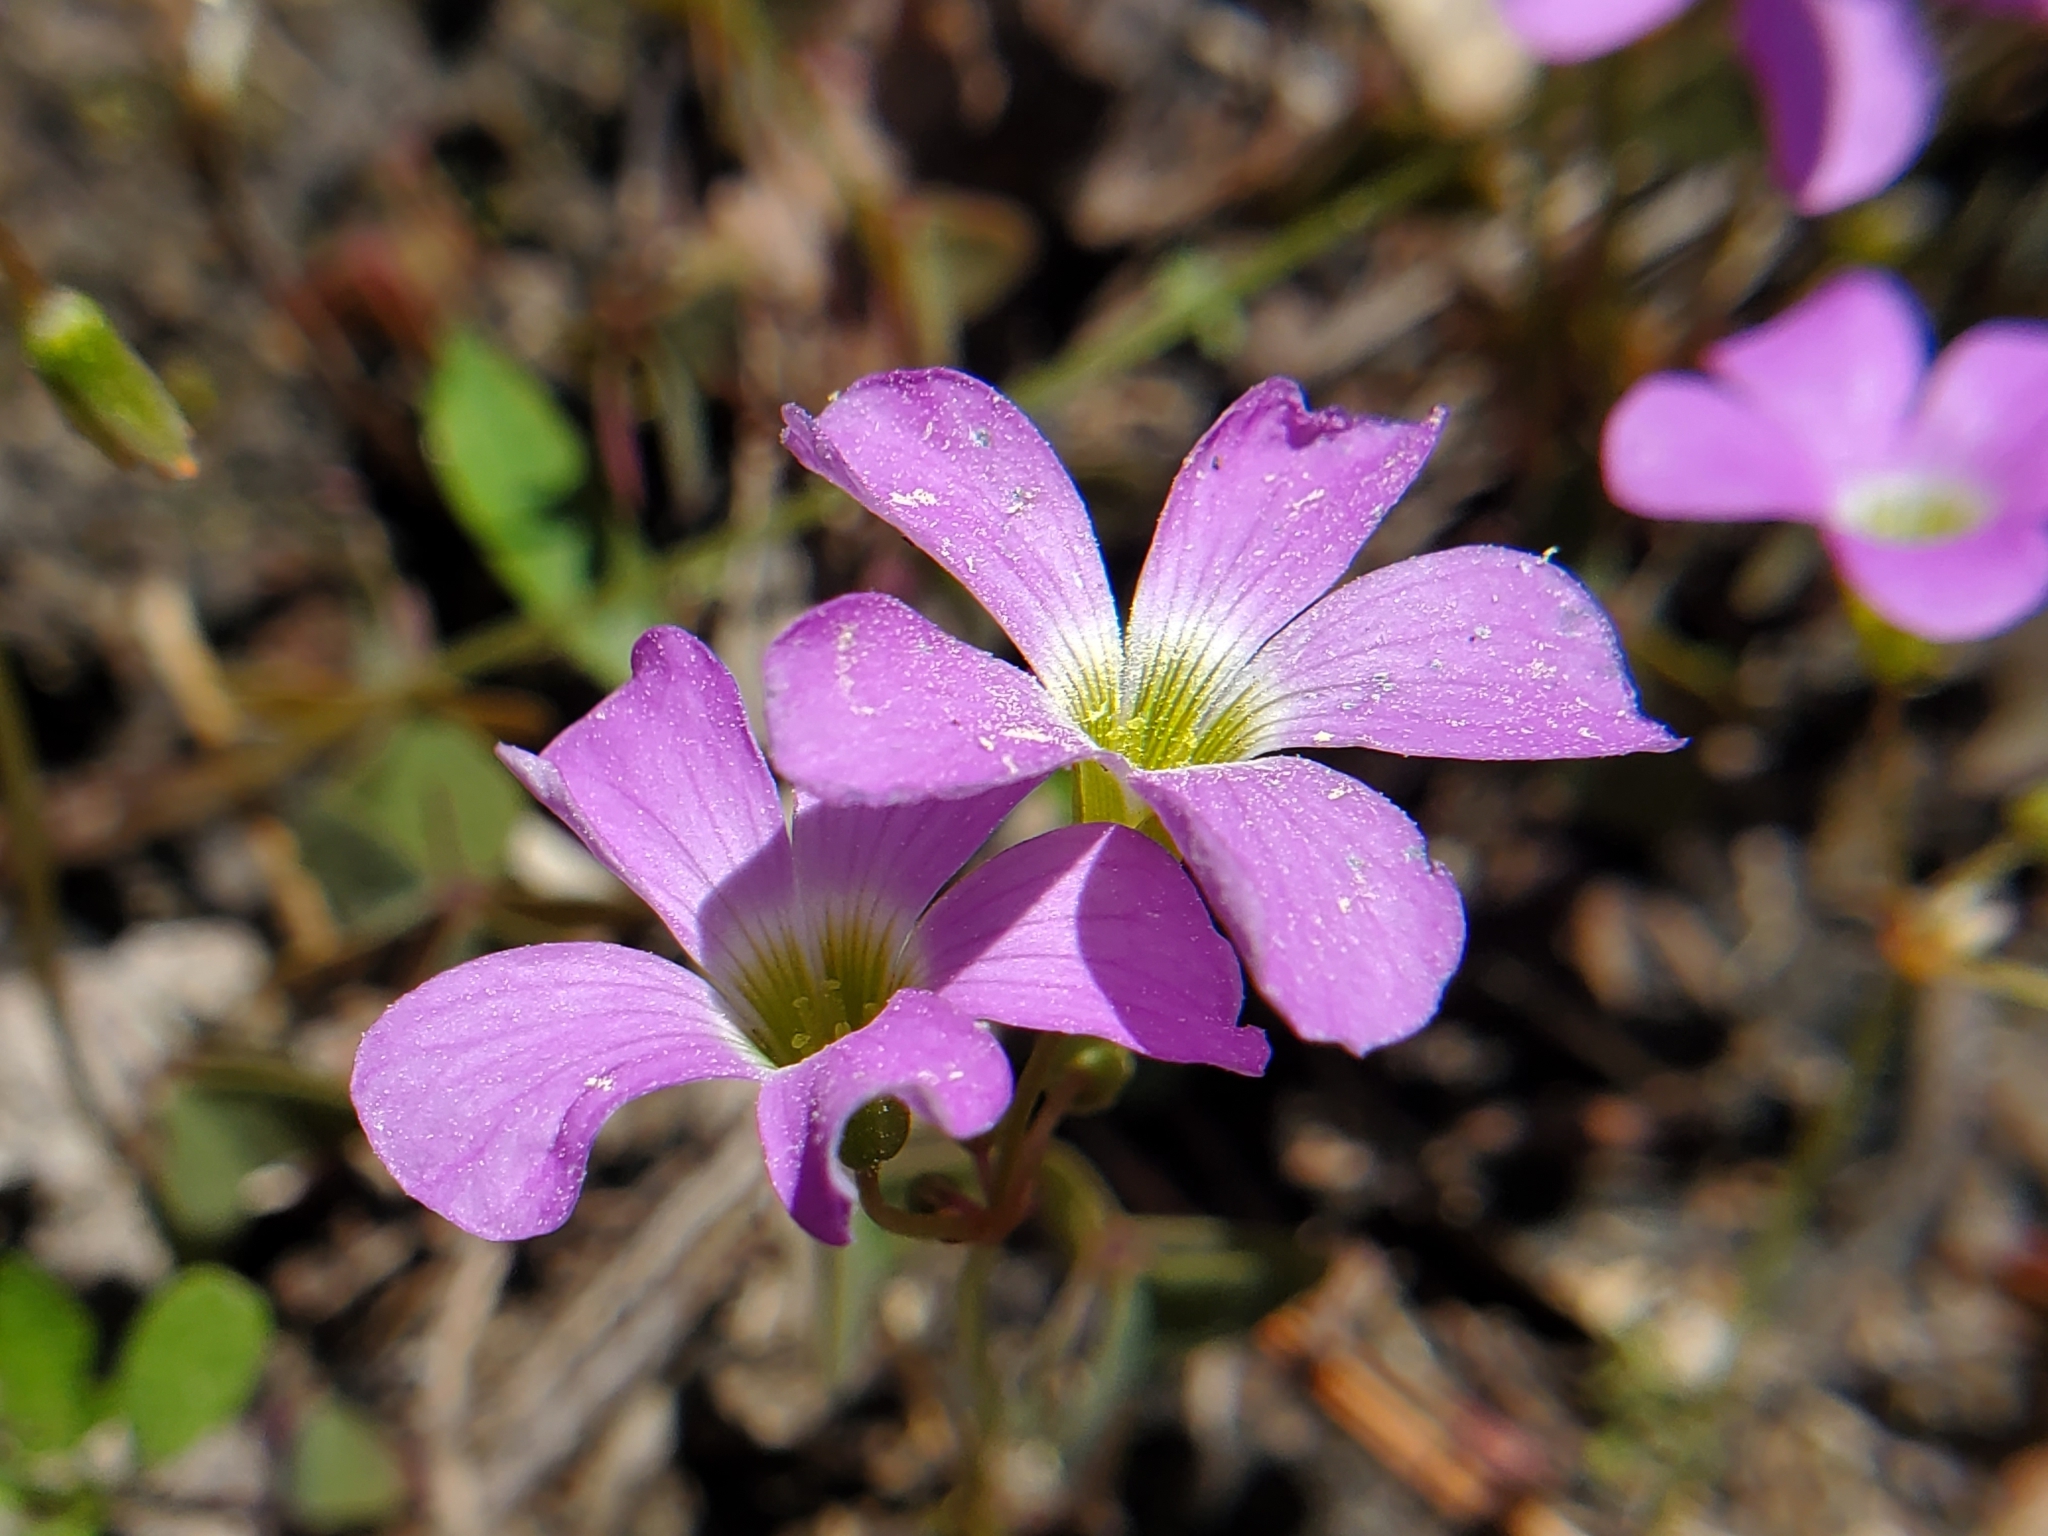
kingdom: Plantae
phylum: Tracheophyta
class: Magnoliopsida
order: Oxalidales
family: Oxalidaceae
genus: Oxalis
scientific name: Oxalis violacea
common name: Violet wood-sorrel
